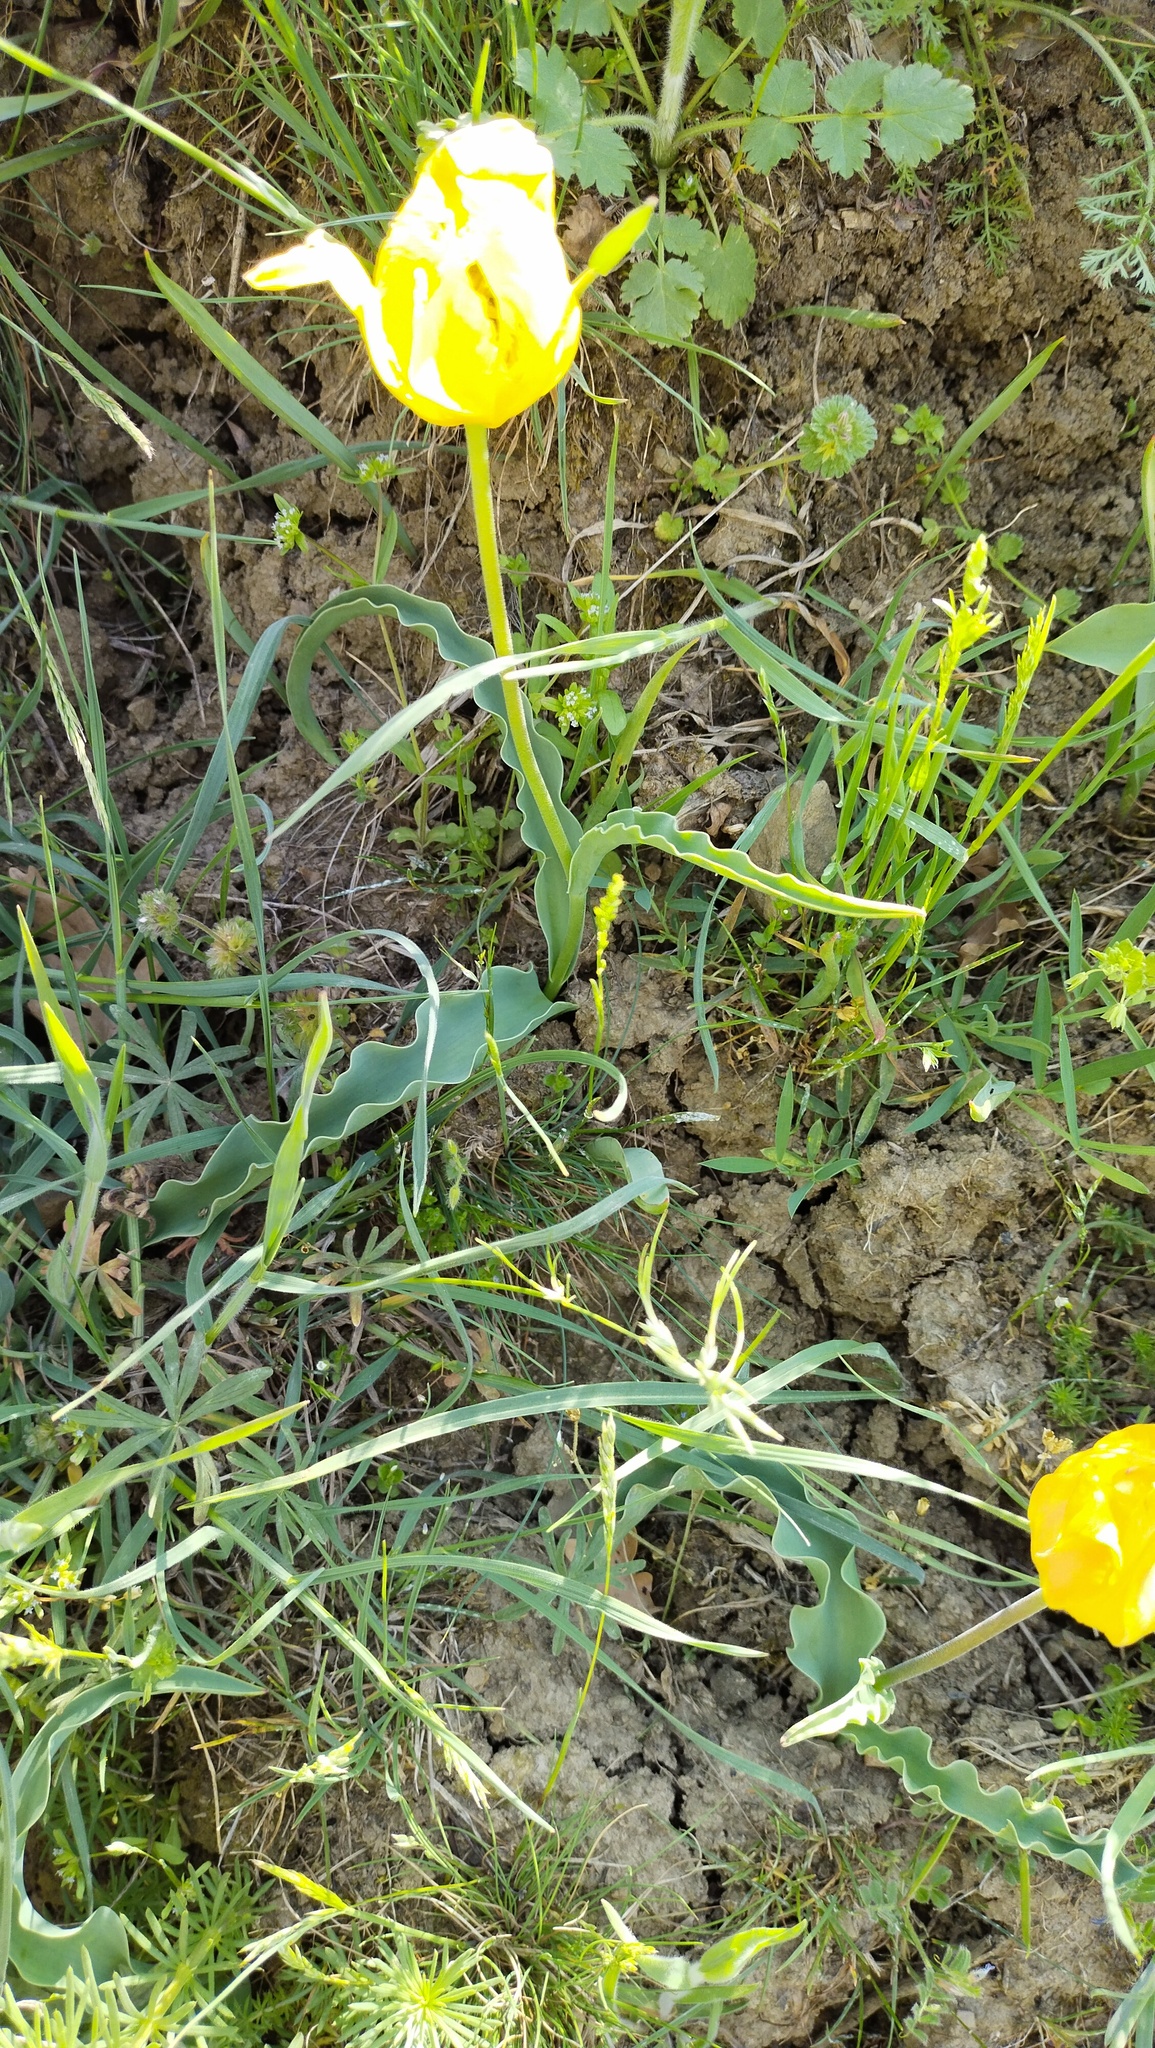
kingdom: Plantae
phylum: Tracheophyta
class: Liliopsida
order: Liliales
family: Liliaceae
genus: Tulipa
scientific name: Tulipa suaveolens
